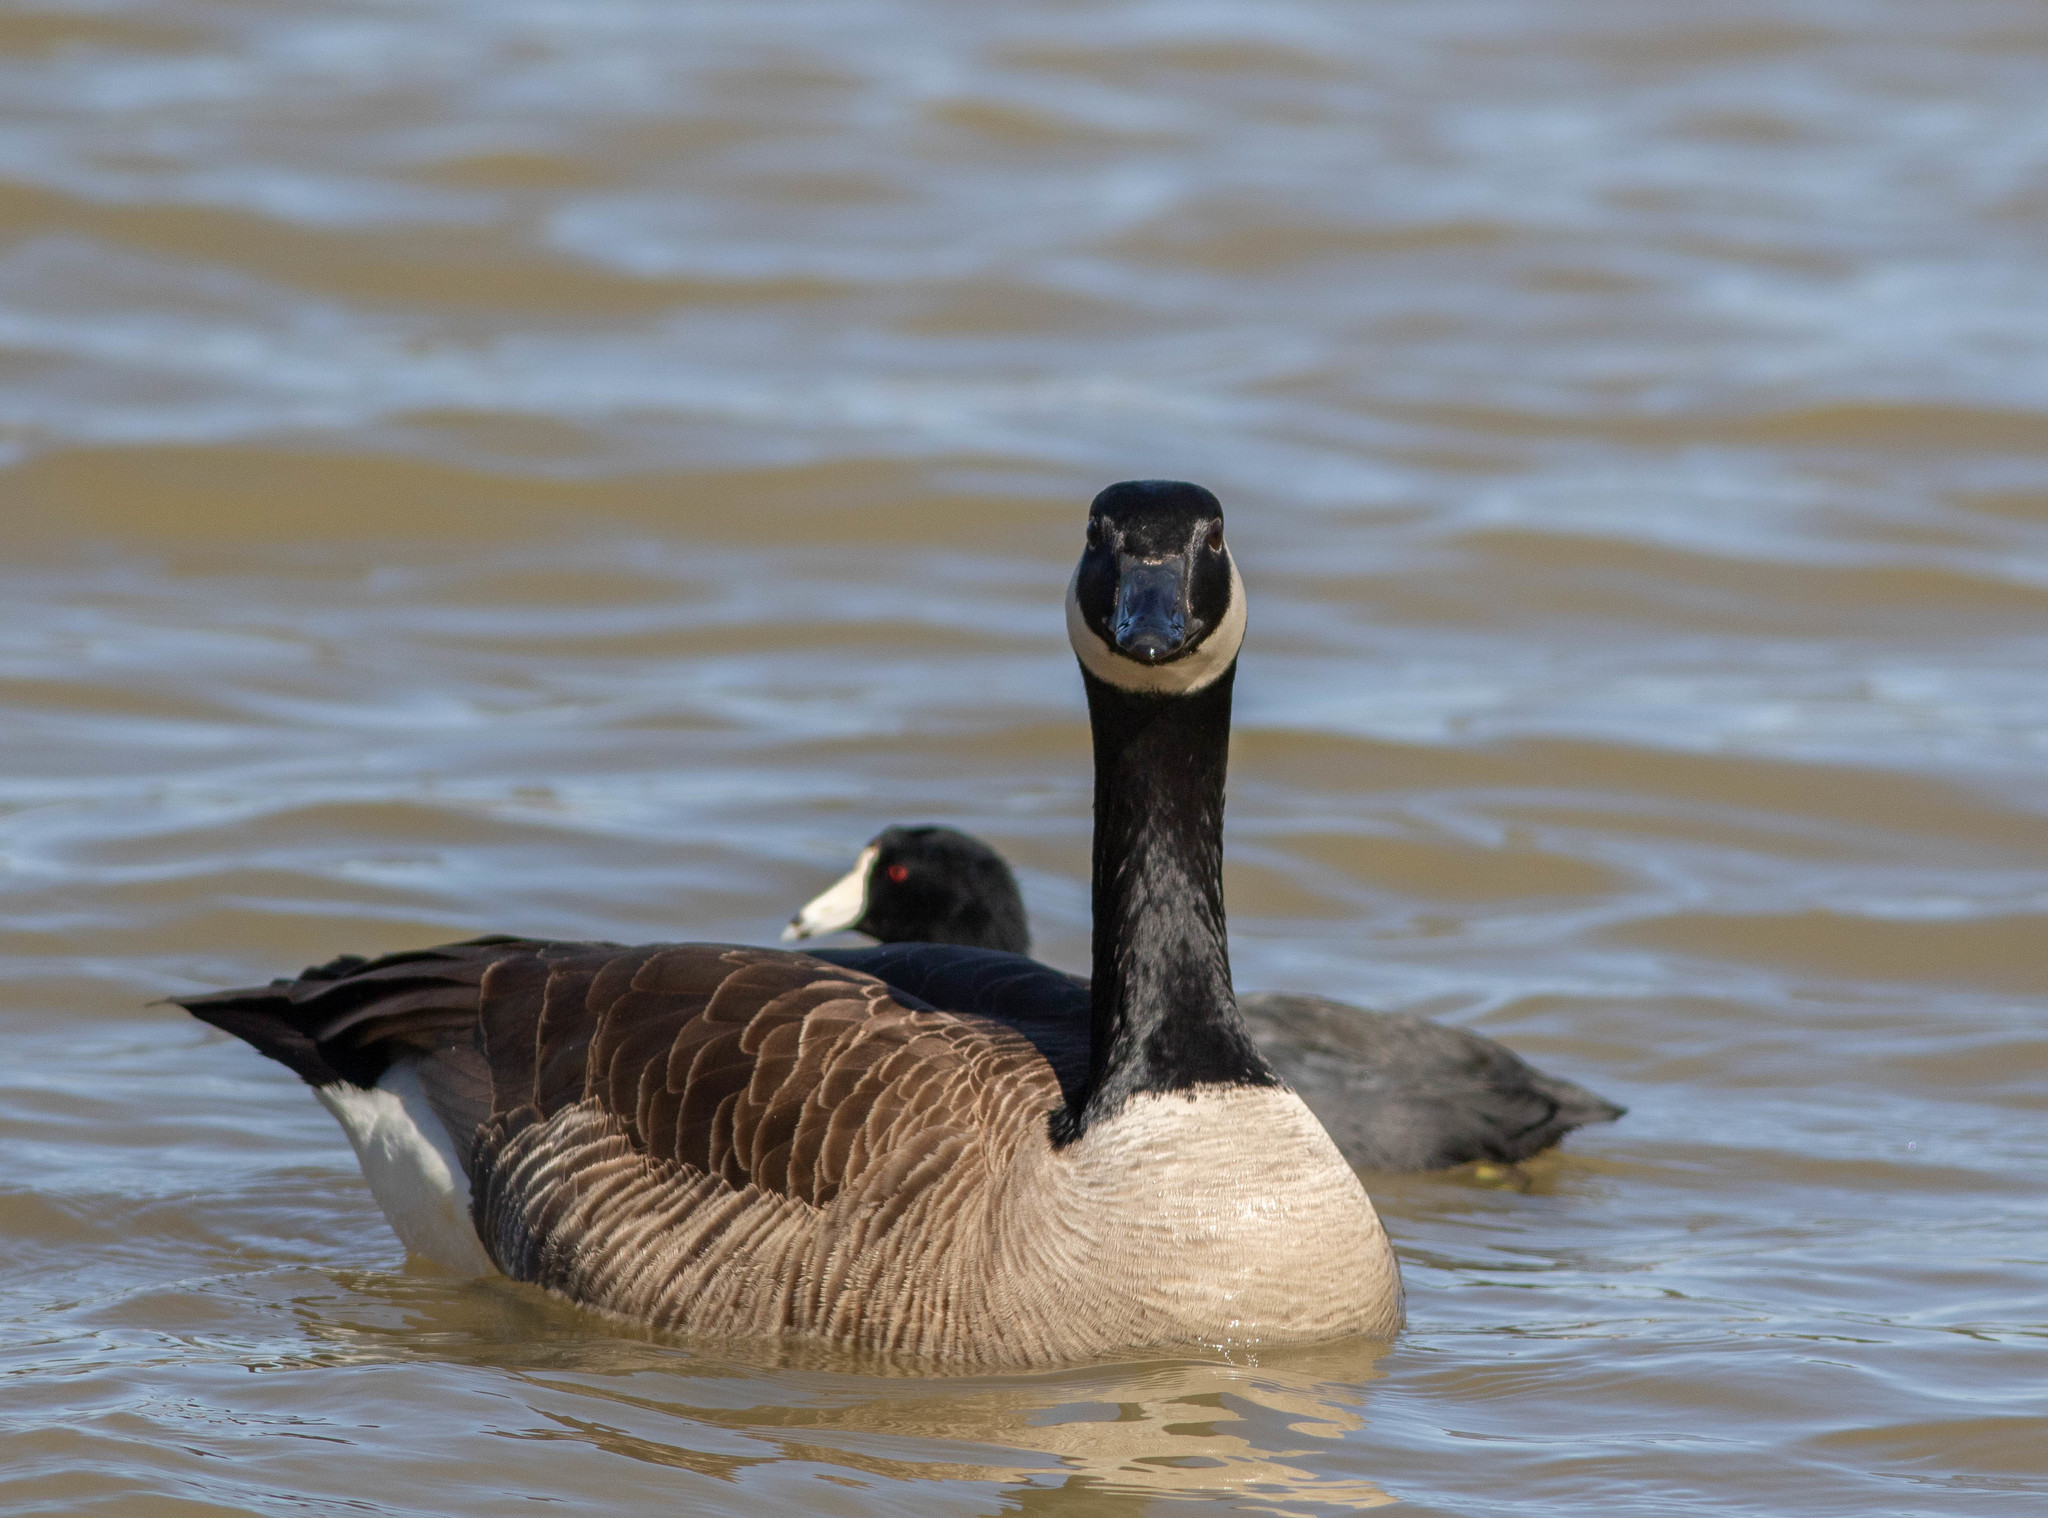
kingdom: Animalia
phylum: Chordata
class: Aves
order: Anseriformes
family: Anatidae
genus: Branta
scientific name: Branta canadensis
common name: Canada goose
